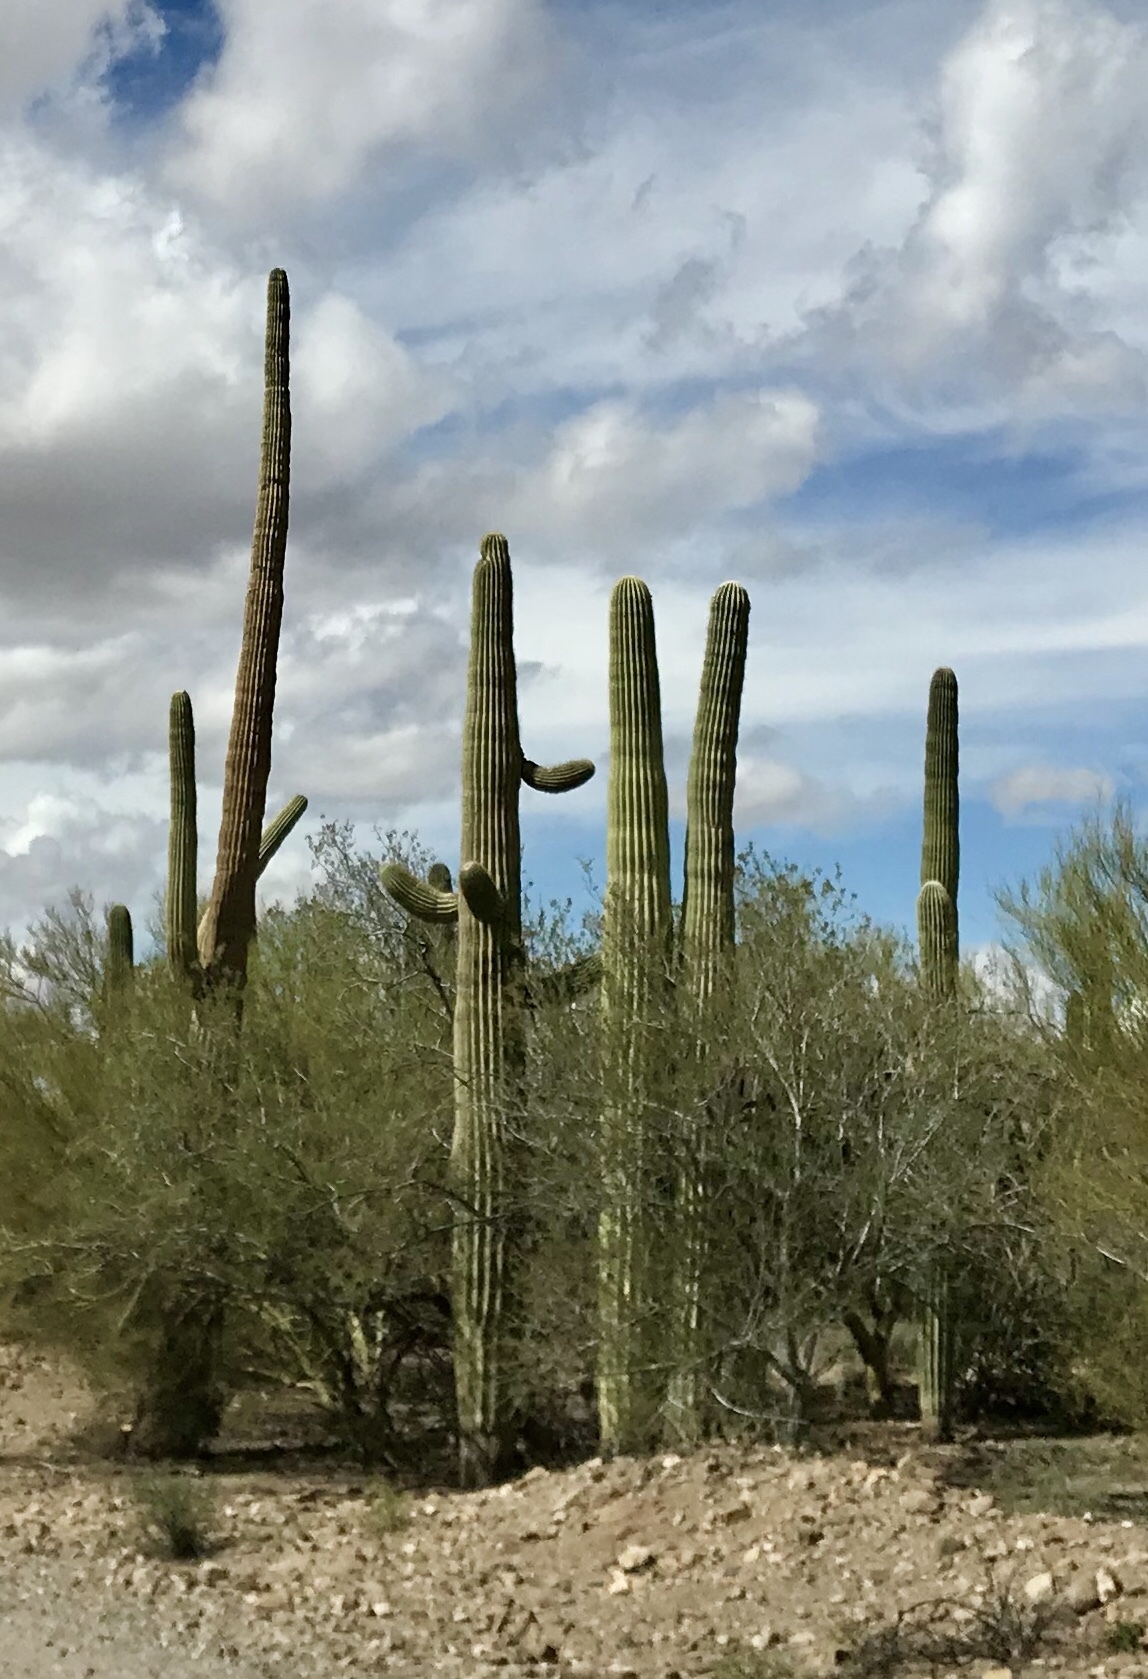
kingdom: Plantae
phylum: Tracheophyta
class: Magnoliopsida
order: Caryophyllales
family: Cactaceae
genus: Carnegiea
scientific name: Carnegiea gigantea
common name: Saguaro
